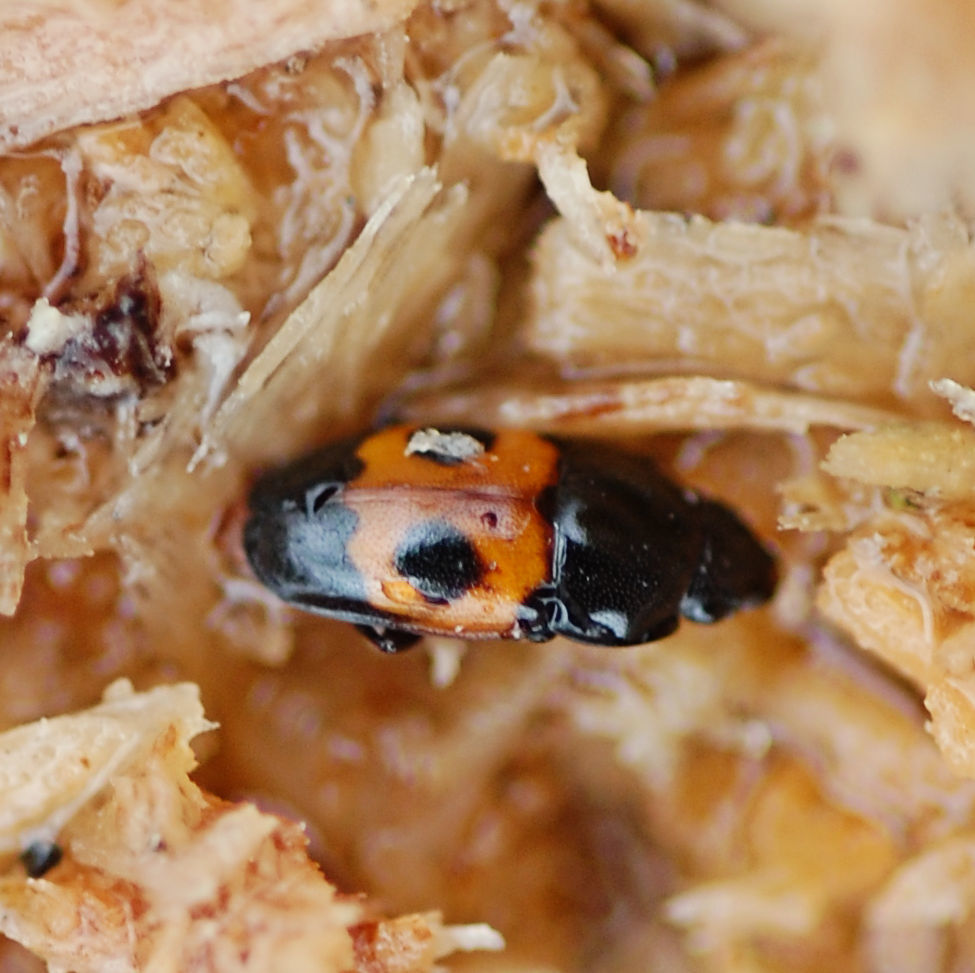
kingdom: Animalia
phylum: Arthropoda
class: Insecta
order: Coleoptera
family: Nitidulidae
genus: Glischrochilus
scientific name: Glischrochilus sanguinolentus
